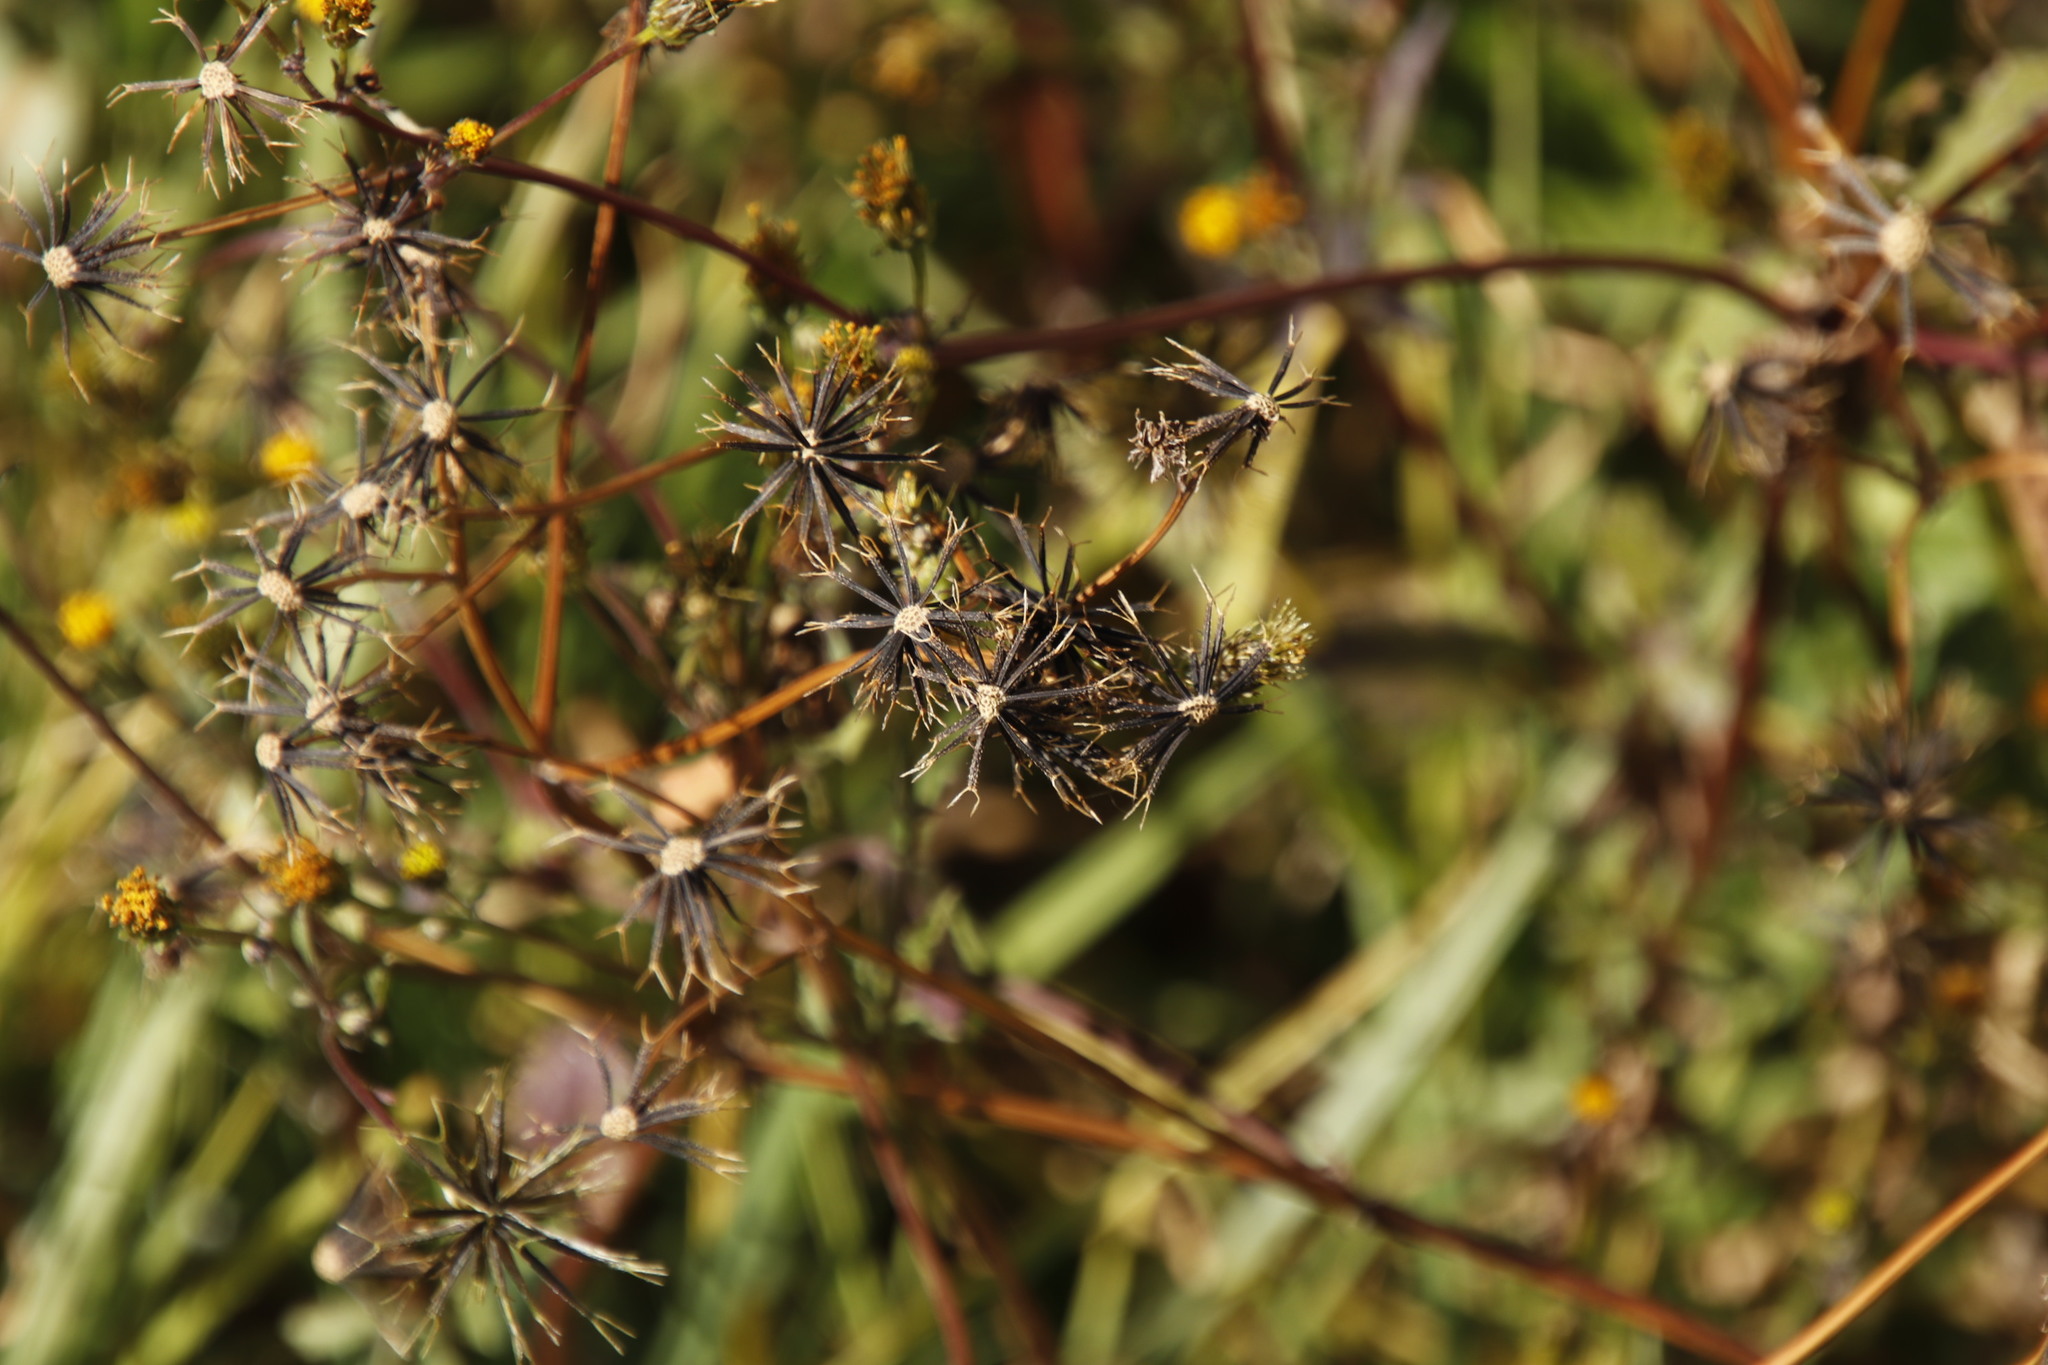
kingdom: Plantae
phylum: Tracheophyta
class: Magnoliopsida
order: Asterales
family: Asteraceae
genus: Bidens
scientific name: Bidens pilosa
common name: Black-jack
